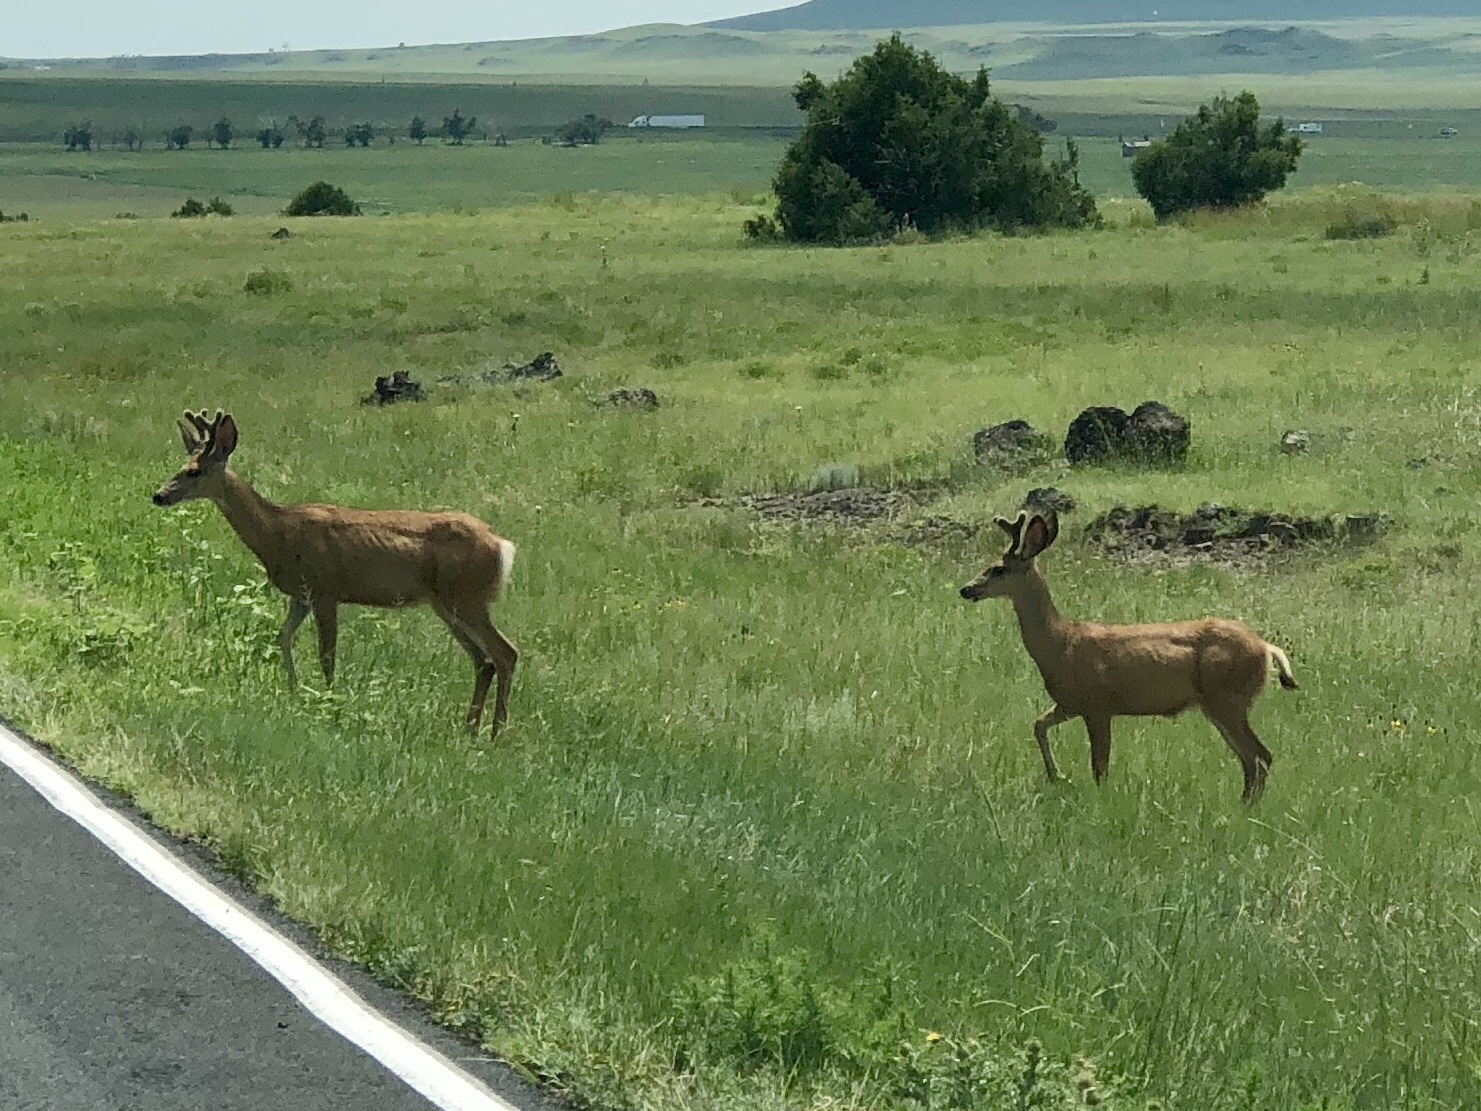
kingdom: Animalia
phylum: Chordata
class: Mammalia
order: Artiodactyla
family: Cervidae
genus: Odocoileus
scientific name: Odocoileus hemionus
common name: Mule deer
